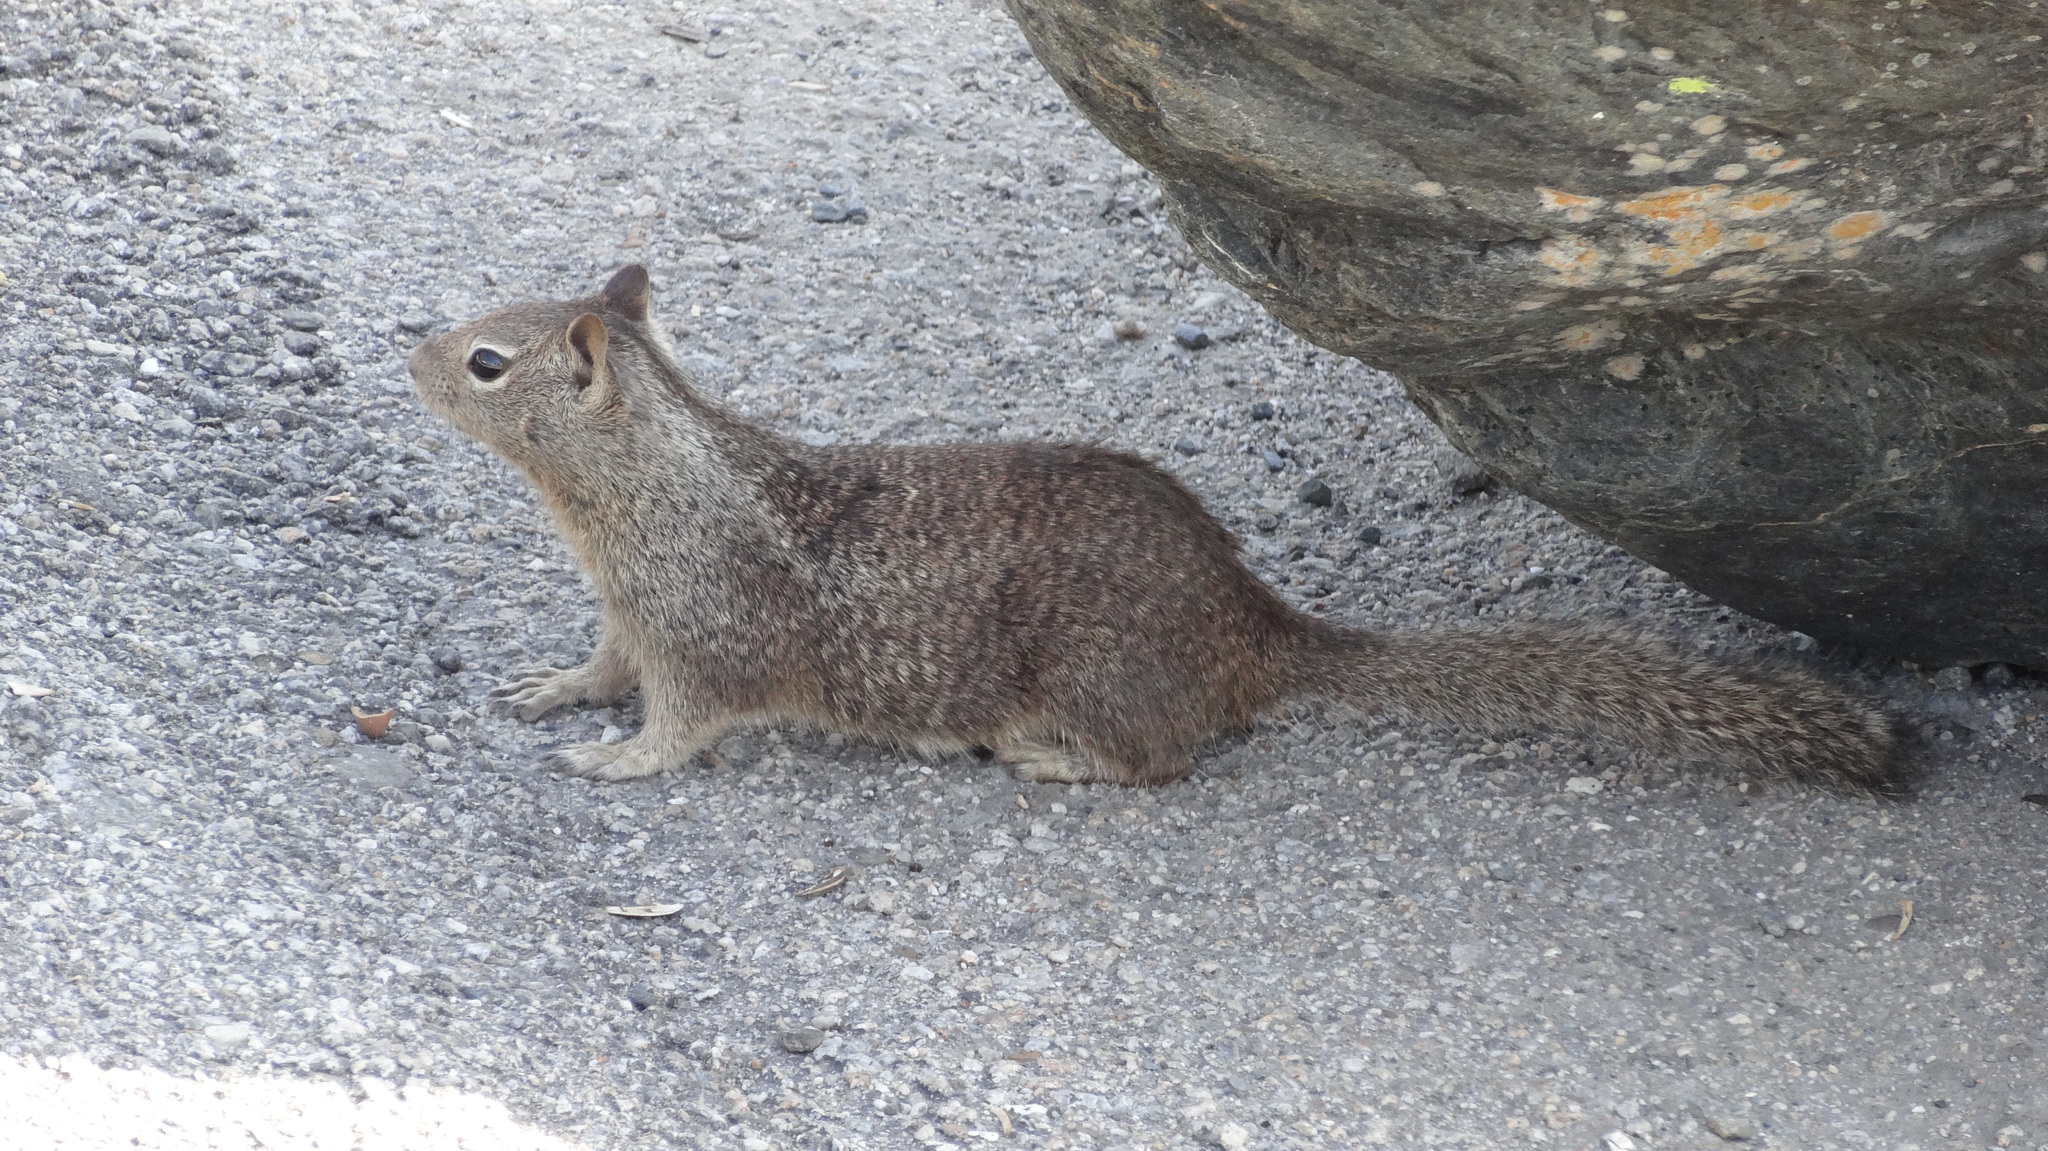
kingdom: Animalia
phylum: Chordata
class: Mammalia
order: Rodentia
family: Sciuridae
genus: Otospermophilus
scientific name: Otospermophilus beecheyi
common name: California ground squirrel
